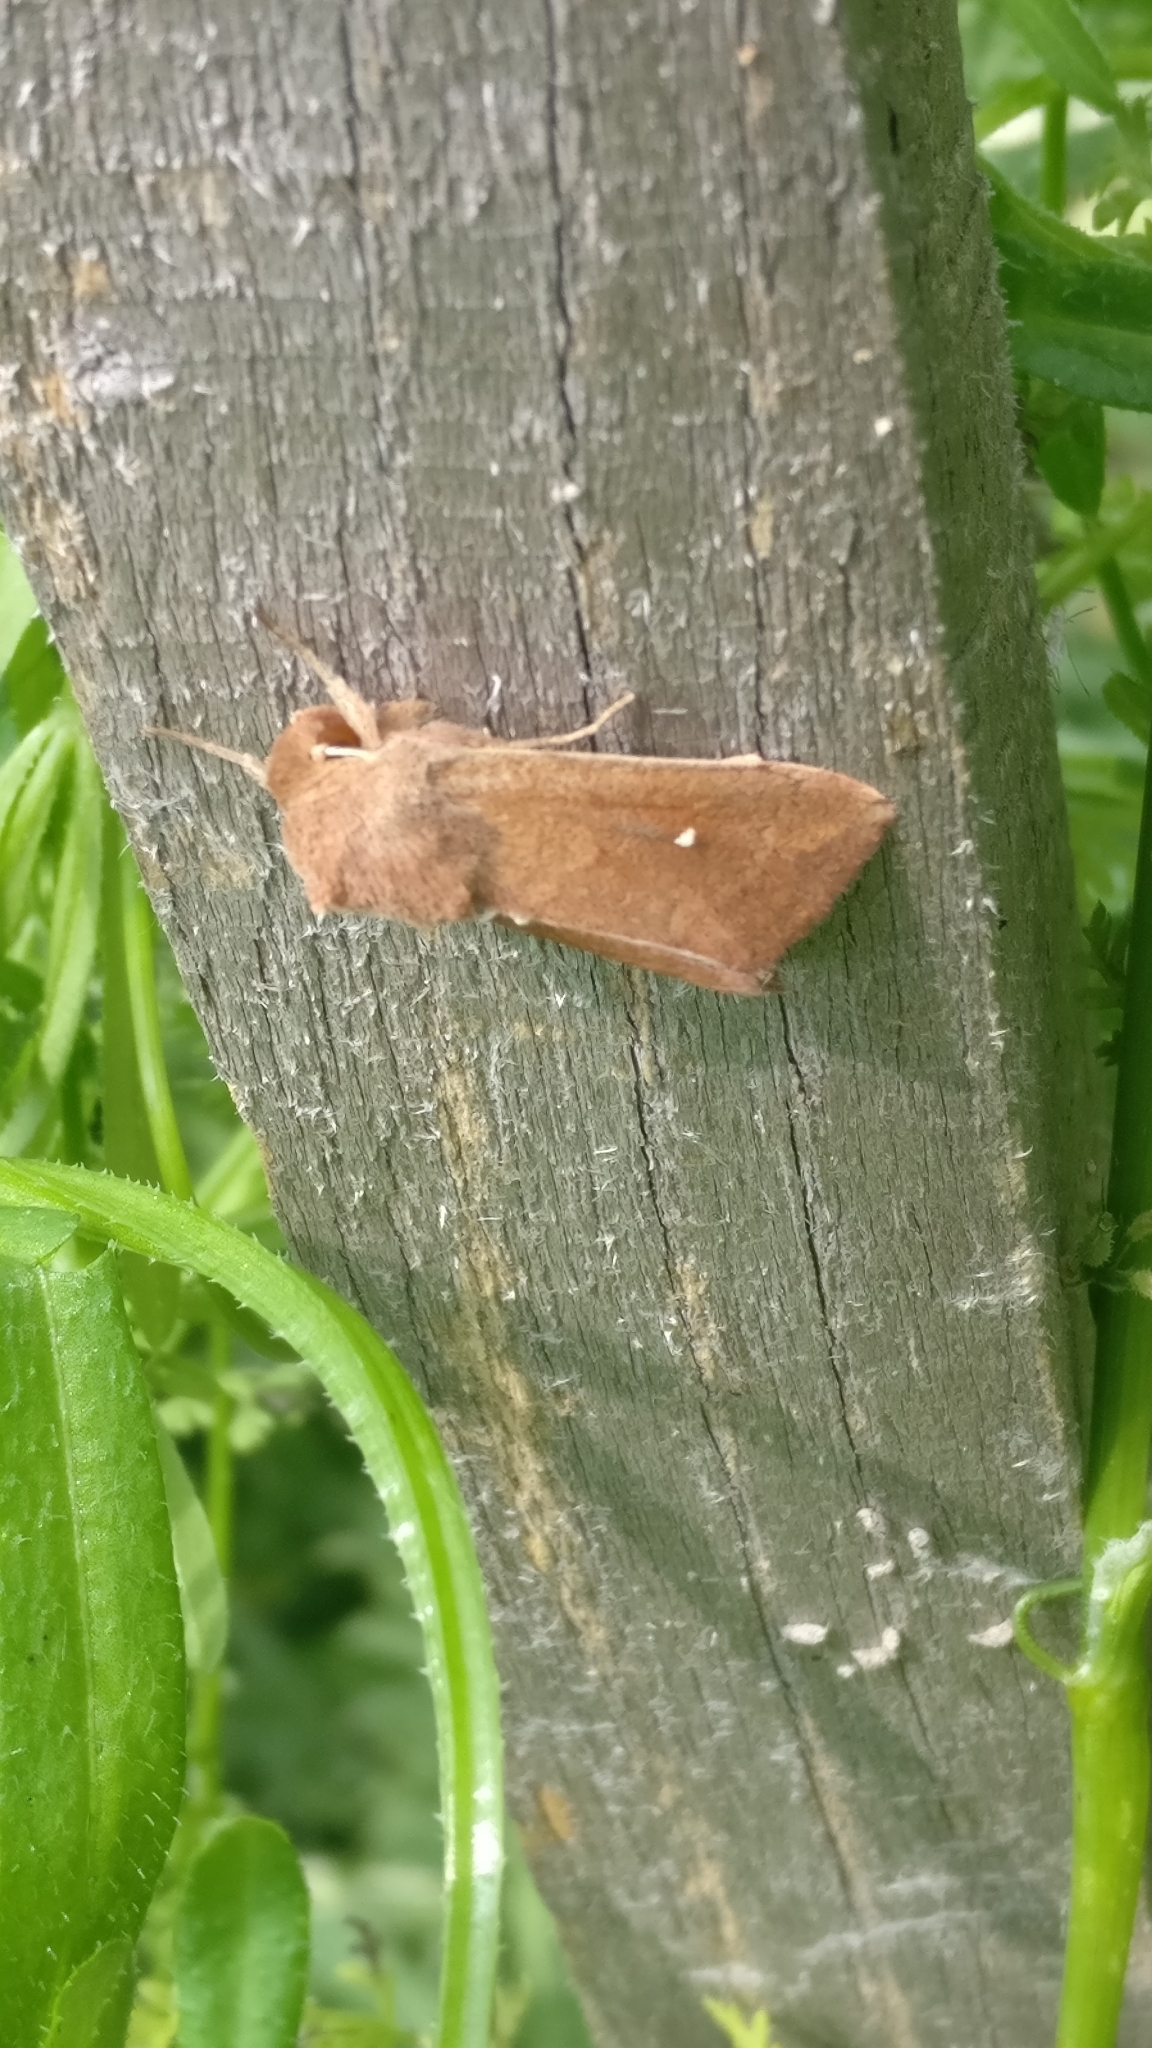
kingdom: Animalia
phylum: Arthropoda
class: Insecta
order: Lepidoptera
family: Noctuidae
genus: Mythimna
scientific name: Mythimna albipuncta
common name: White-point
